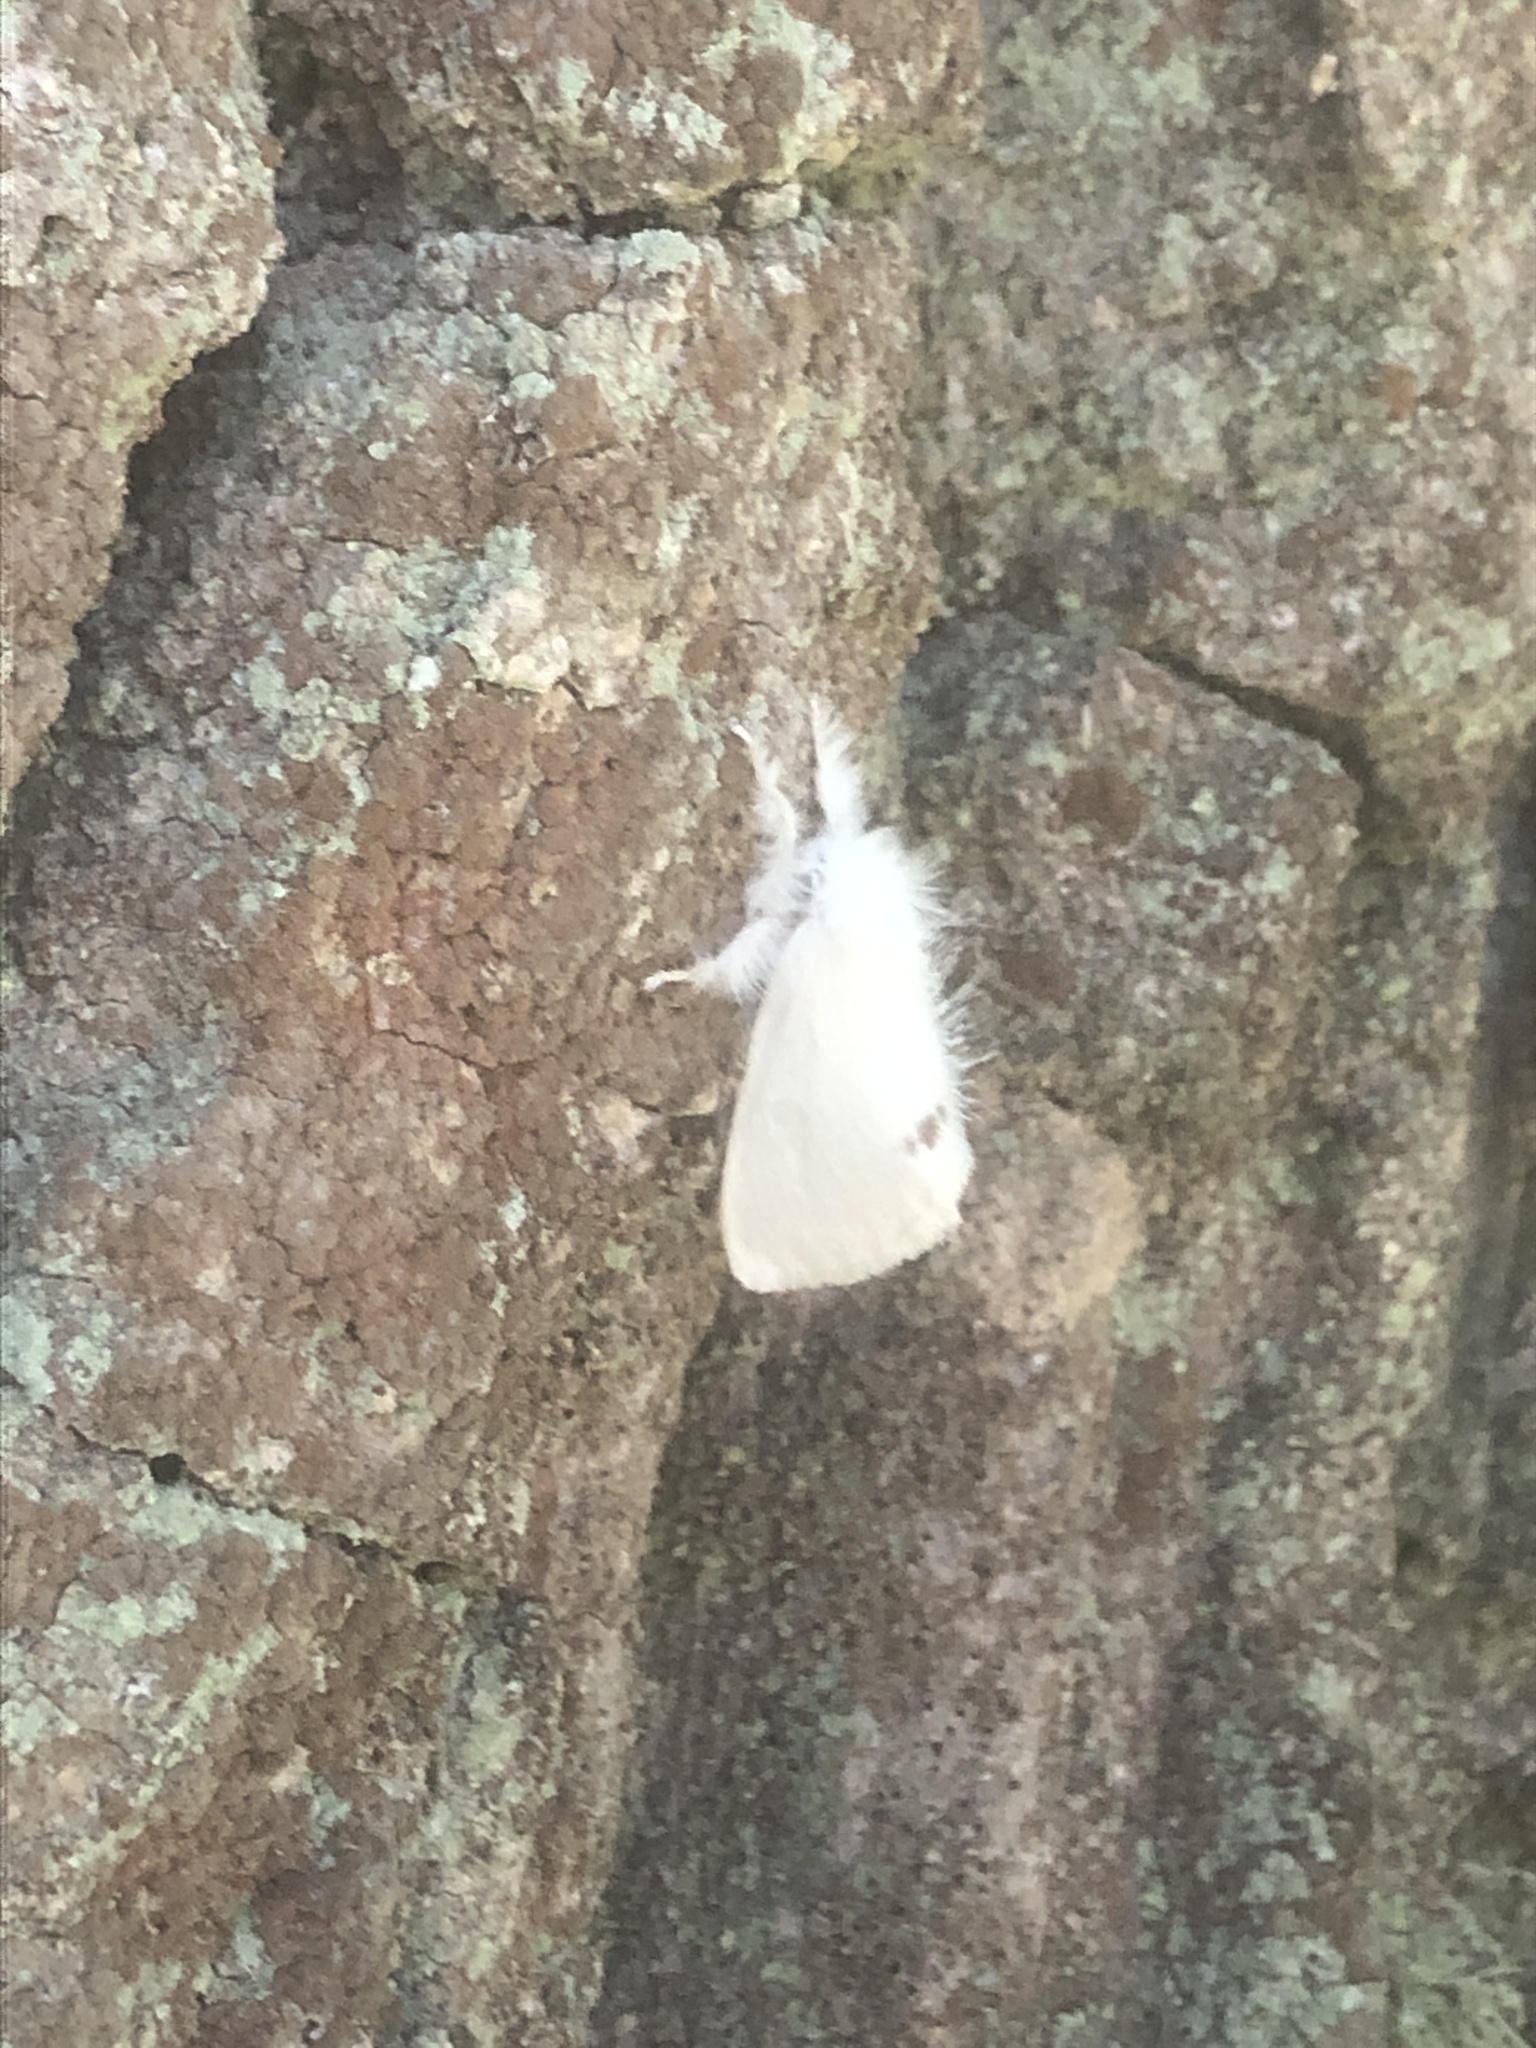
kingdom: Animalia
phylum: Arthropoda
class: Insecta
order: Lepidoptera
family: Erebidae
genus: Sphrageidus
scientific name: Sphrageidus similis
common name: Yellow-tail
